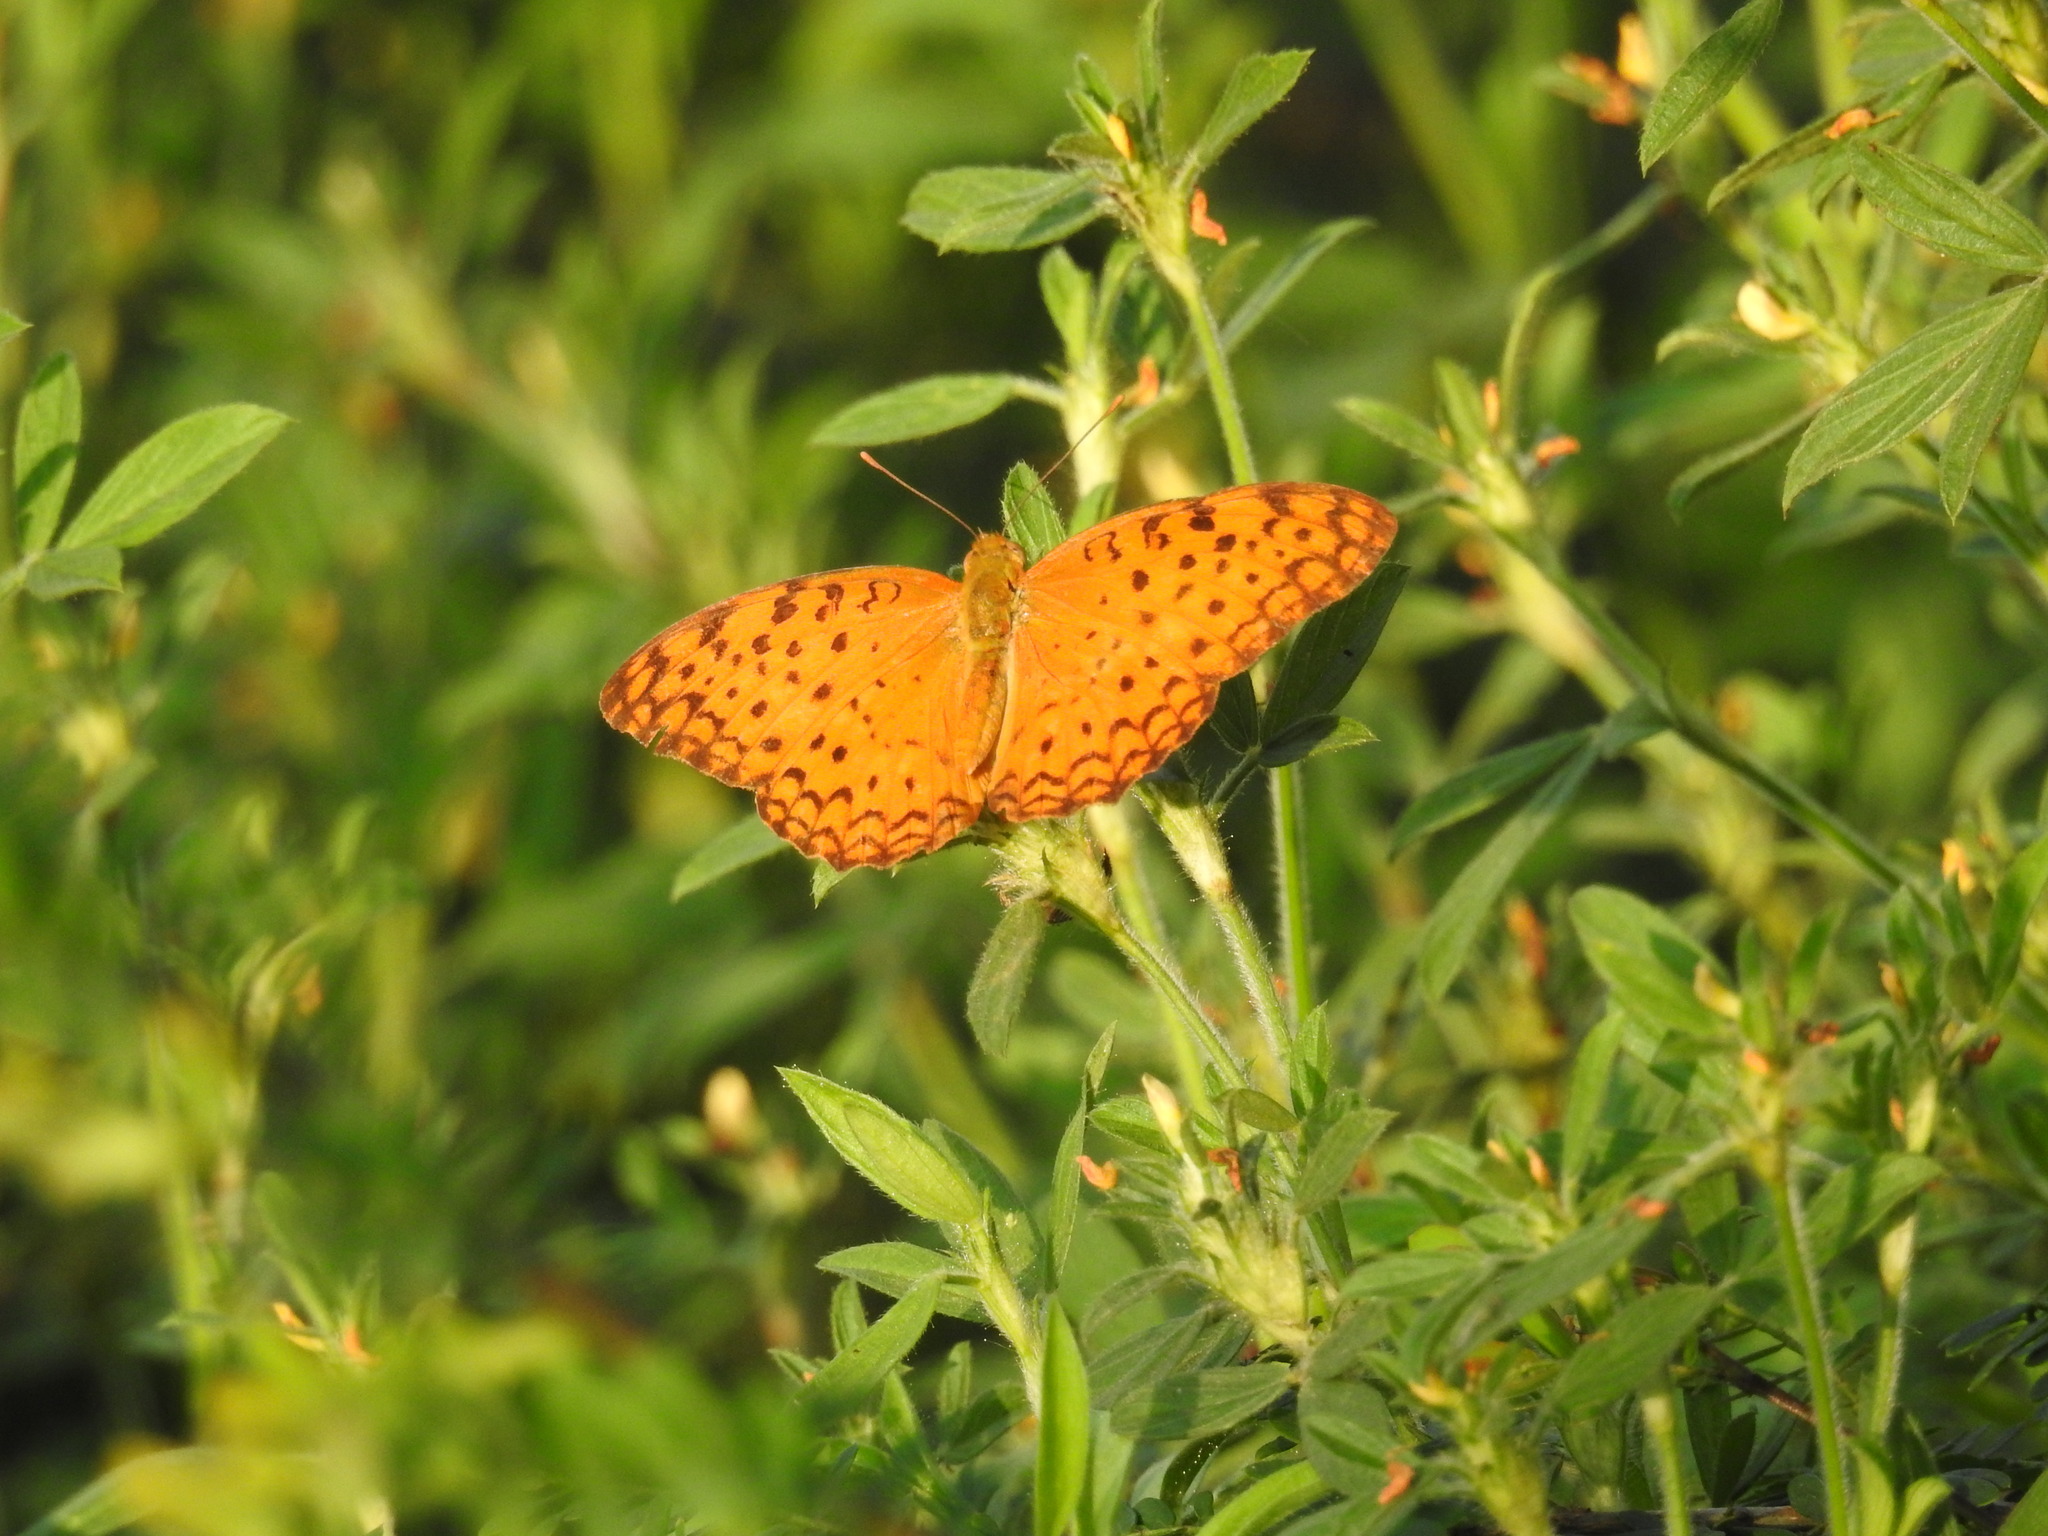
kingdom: Animalia
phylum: Arthropoda
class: Insecta
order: Lepidoptera
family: Nymphalidae
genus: Phalanta
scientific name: Phalanta phalantha
